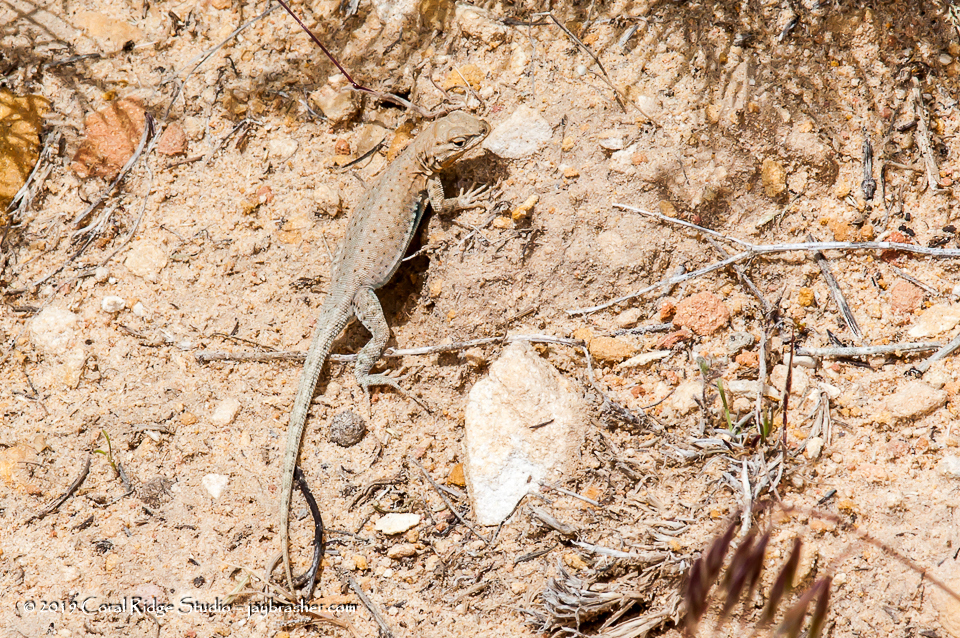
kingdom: Animalia
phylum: Chordata
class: Squamata
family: Phrynosomatidae
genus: Uta
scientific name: Uta stansburiana
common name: Side-blotched lizard
